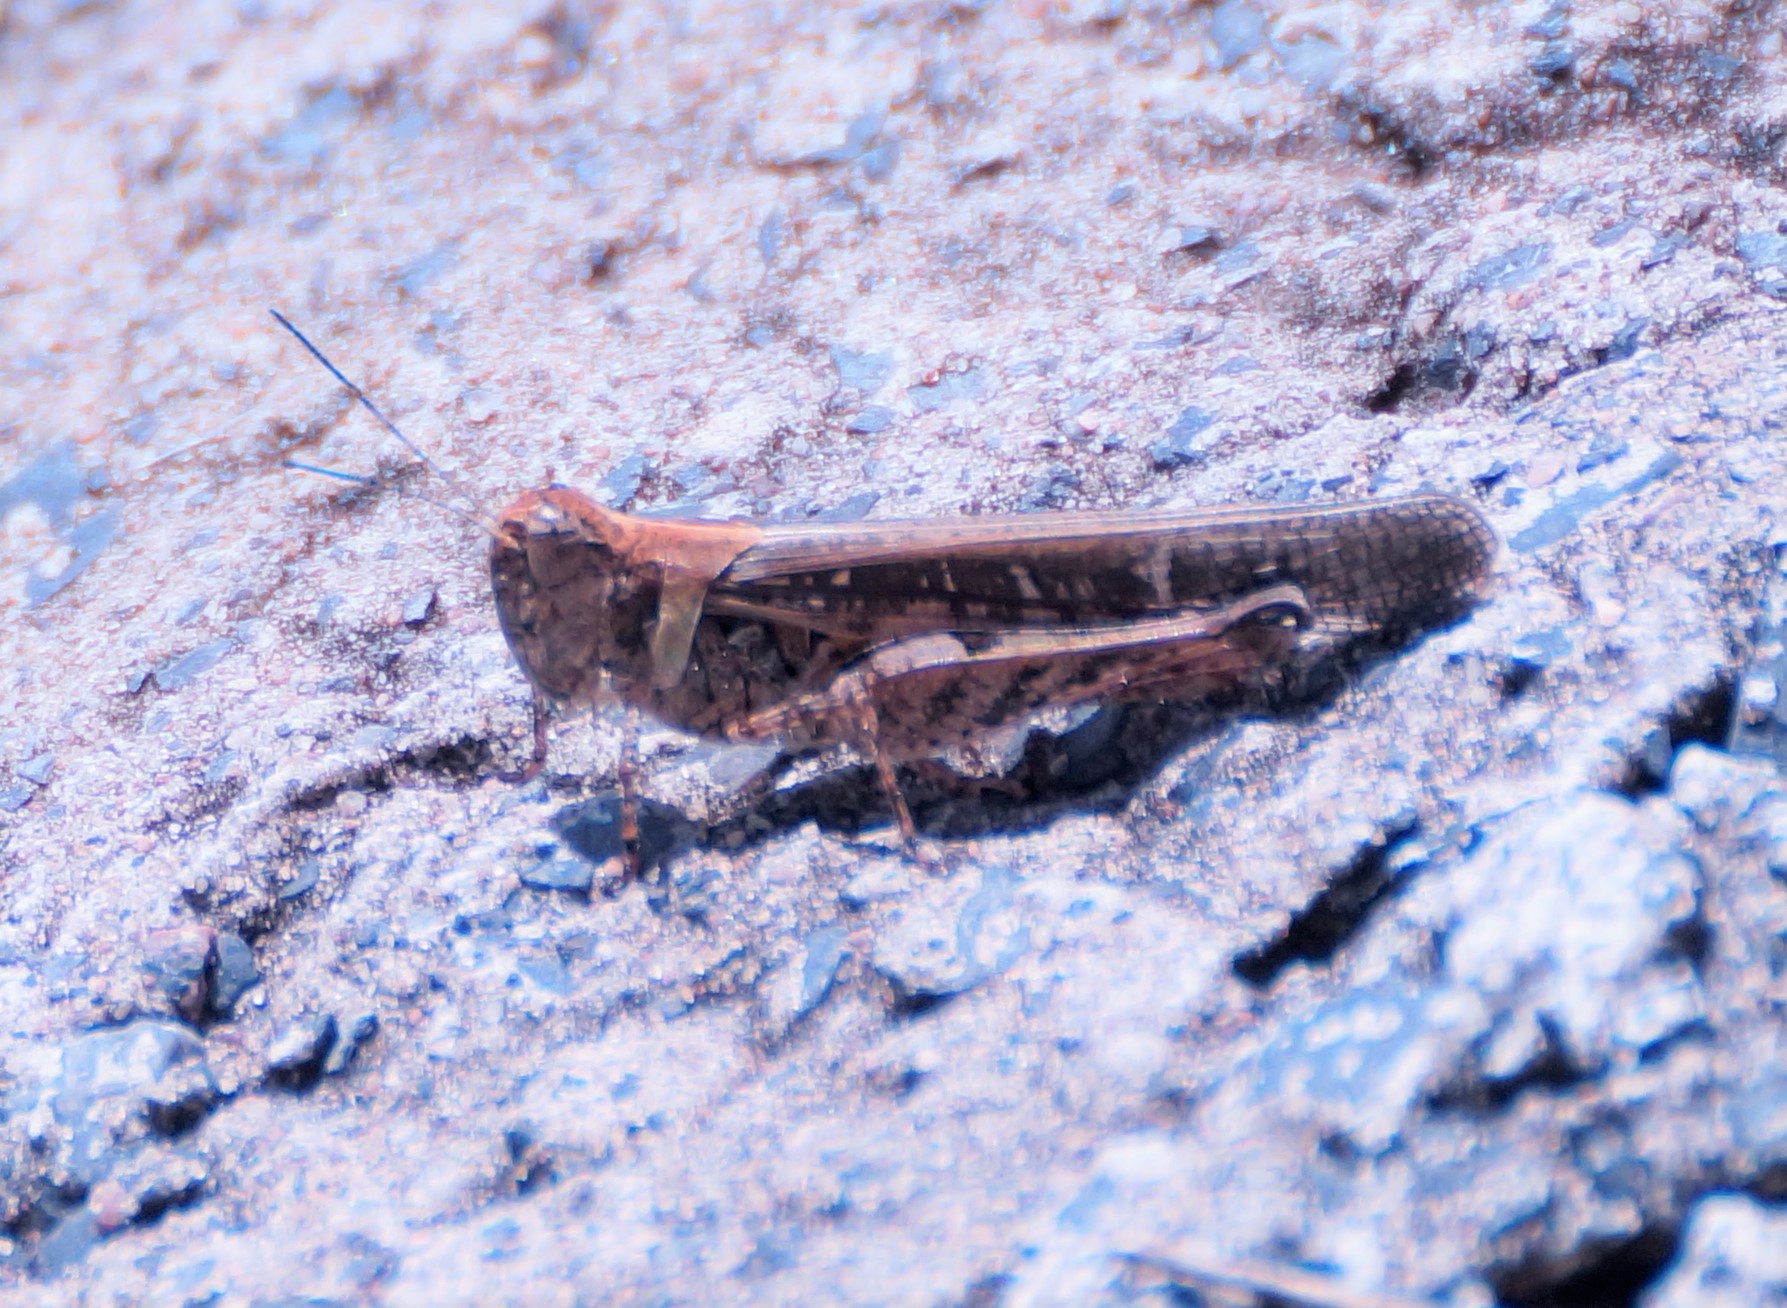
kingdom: Animalia
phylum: Arthropoda
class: Insecta
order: Orthoptera
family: Acrididae
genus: Heteropternis
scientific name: Heteropternis obscurella
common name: Long-legged bandwing
